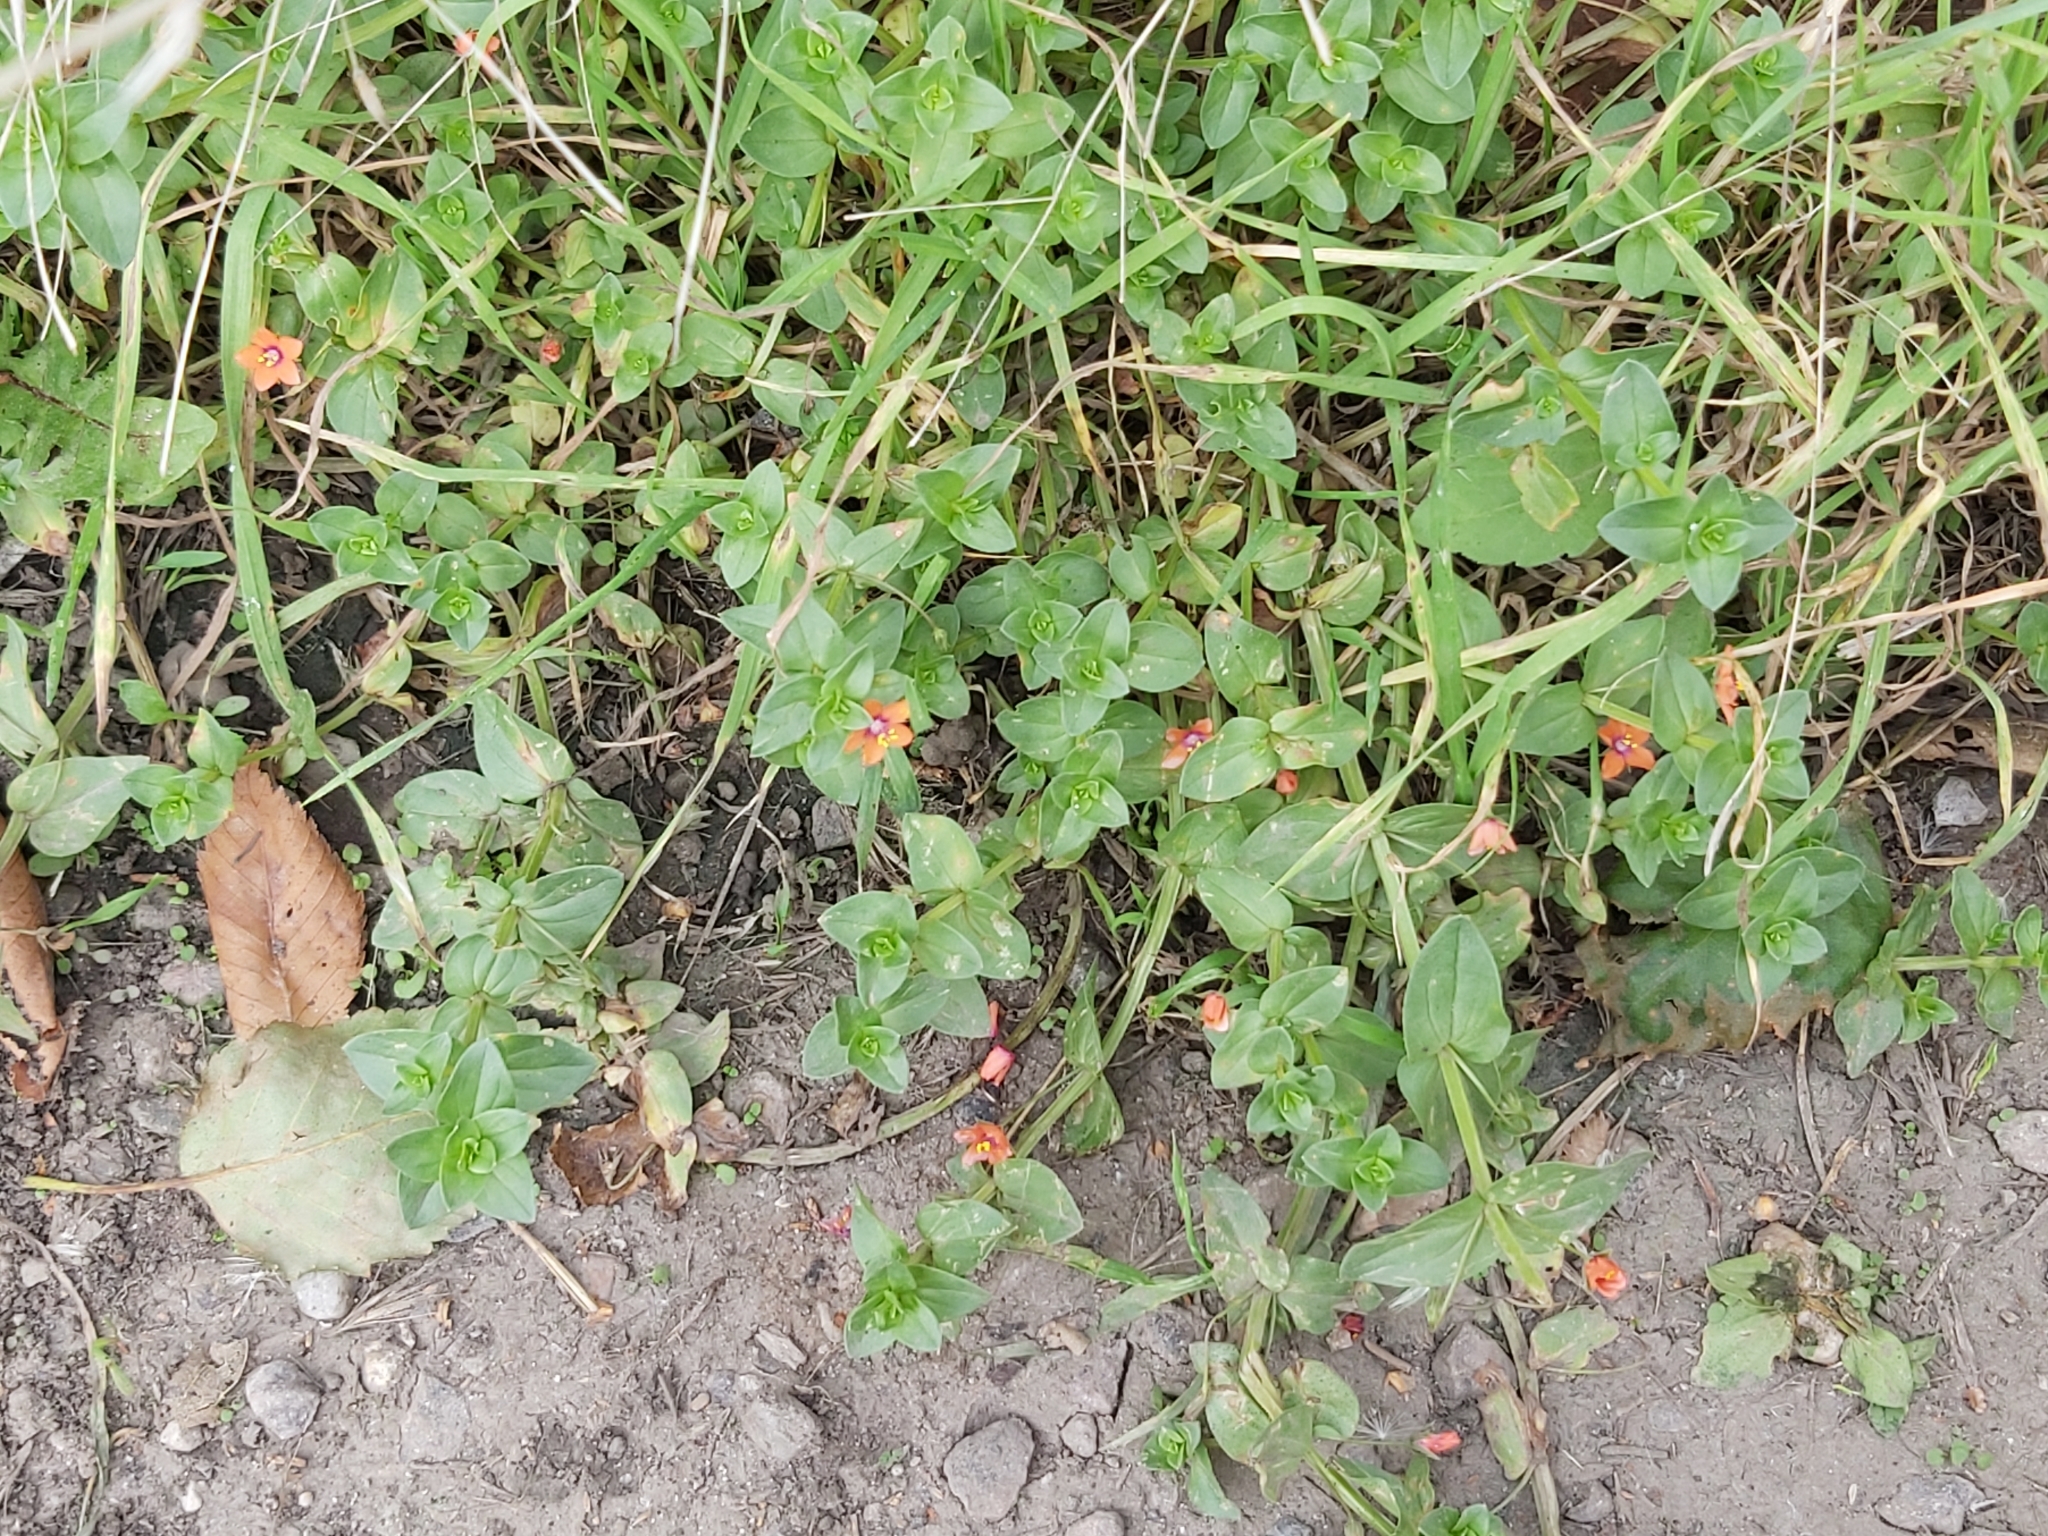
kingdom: Plantae
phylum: Tracheophyta
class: Magnoliopsida
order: Ericales
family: Primulaceae
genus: Lysimachia
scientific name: Lysimachia arvensis
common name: Scarlet pimpernel
